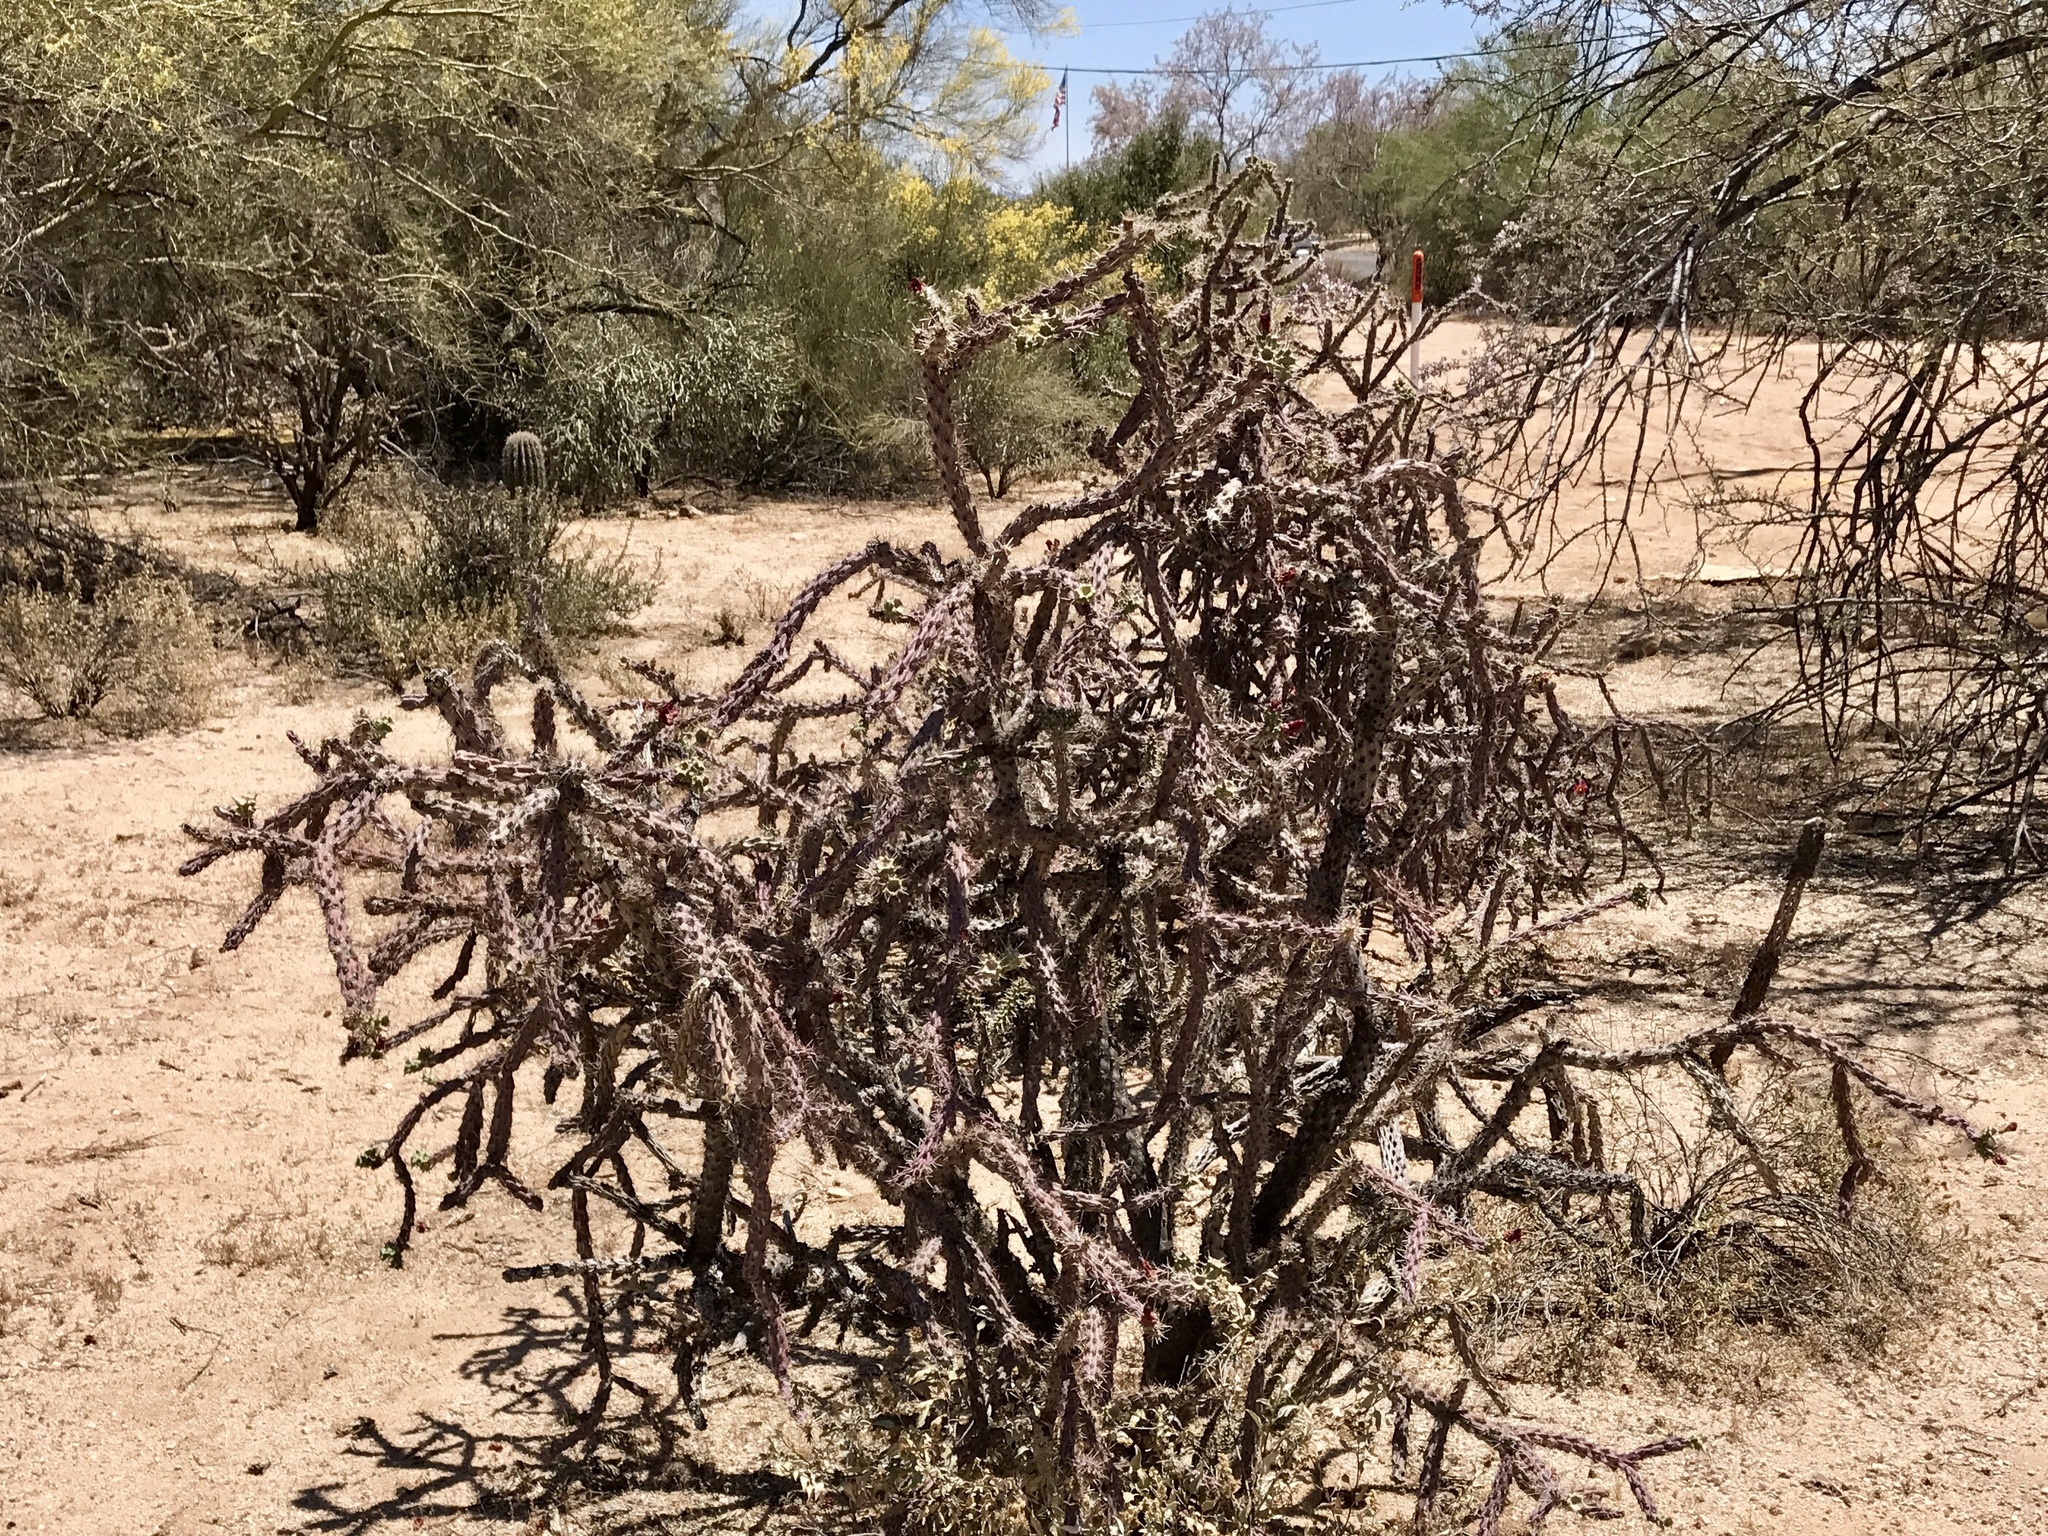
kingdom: Plantae
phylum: Tracheophyta
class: Magnoliopsida
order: Caryophyllales
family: Cactaceae
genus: Cylindropuntia
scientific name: Cylindropuntia thurberi
